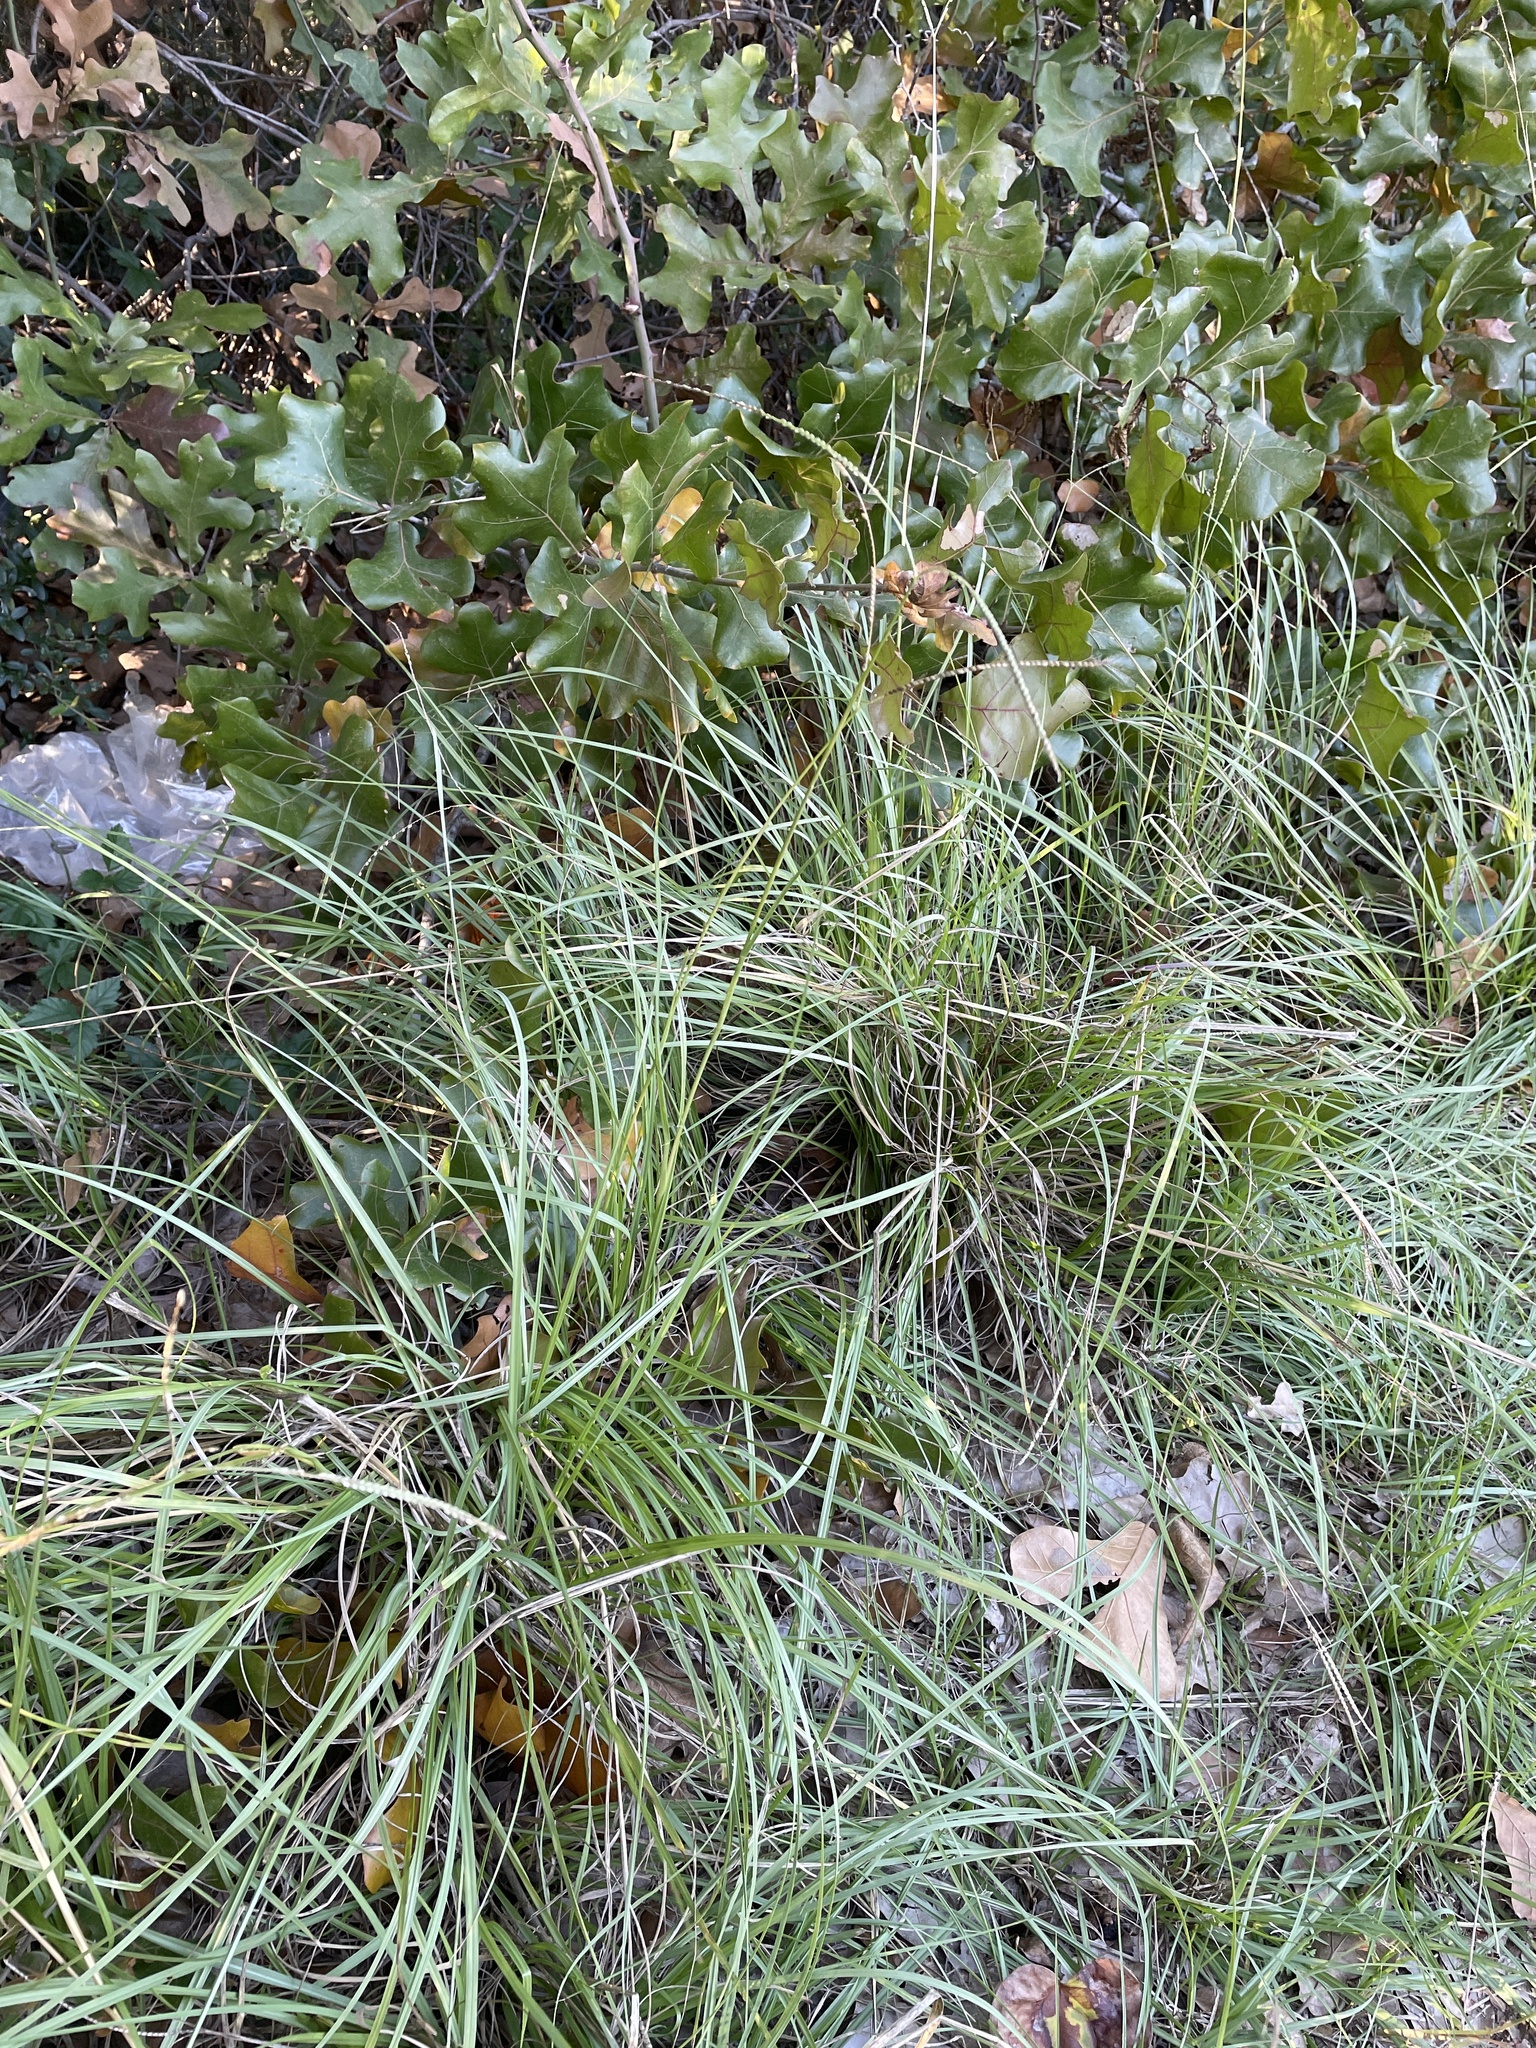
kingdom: Plantae
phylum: Tracheophyta
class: Liliopsida
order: Poales
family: Poaceae
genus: Paspalum
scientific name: Paspalum notatum
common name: Bahiagrass
